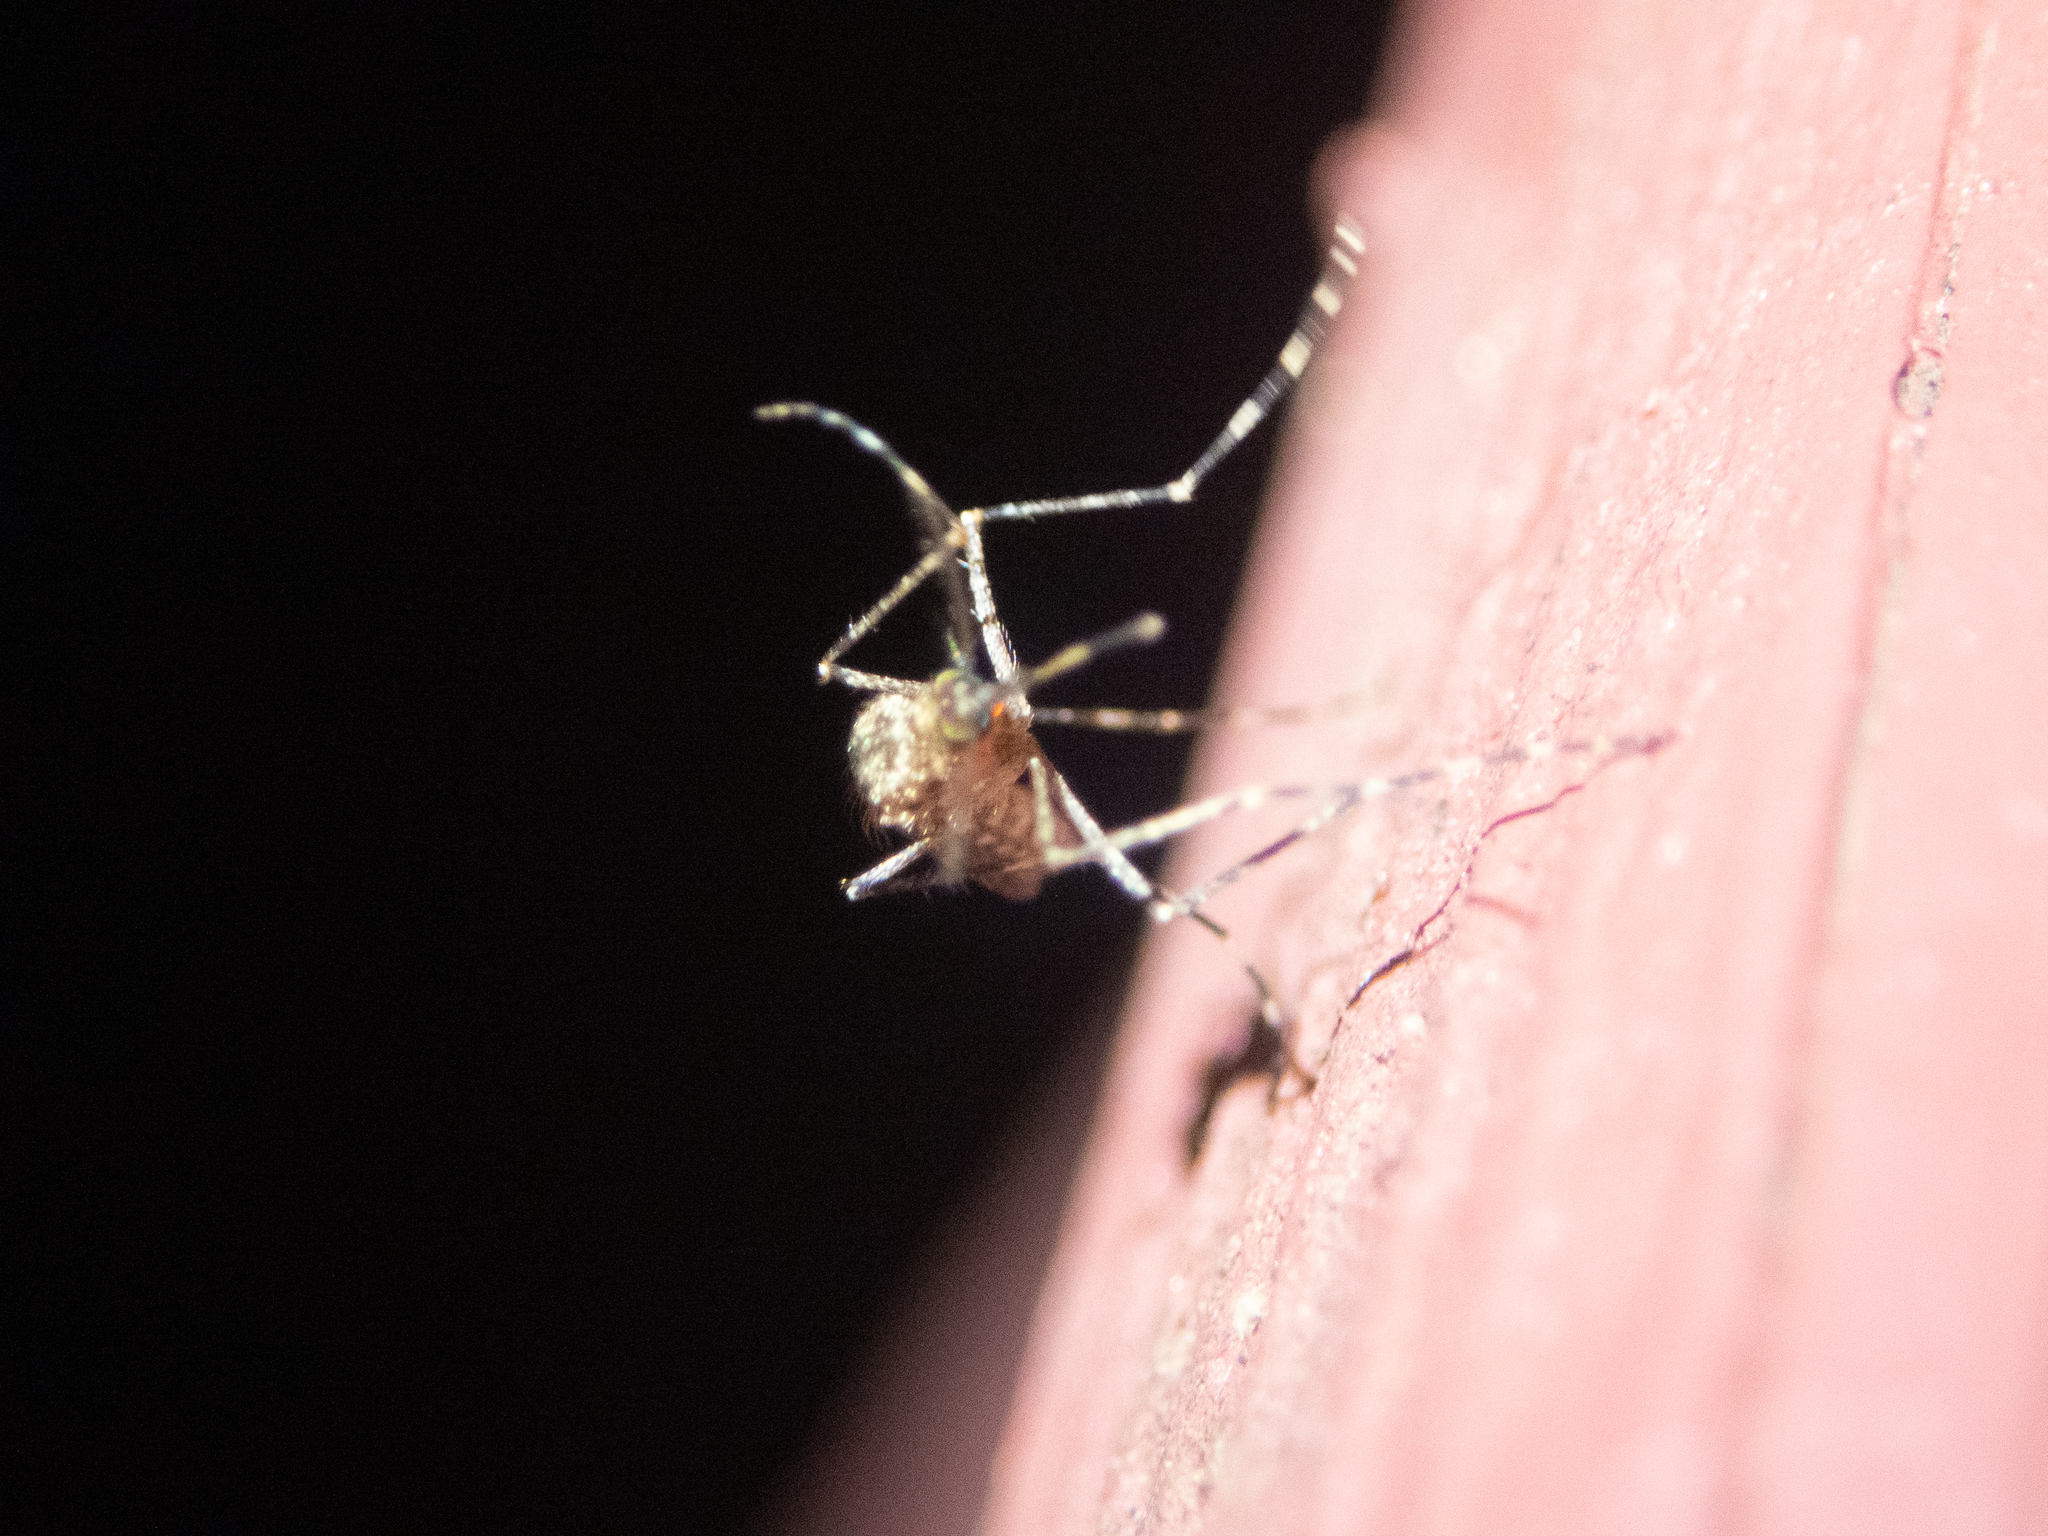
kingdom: Animalia
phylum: Arthropoda
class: Insecta
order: Diptera
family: Culicidae
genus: Coquillettidia
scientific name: Coquillettidia perturbans
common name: Cattail mosquito
